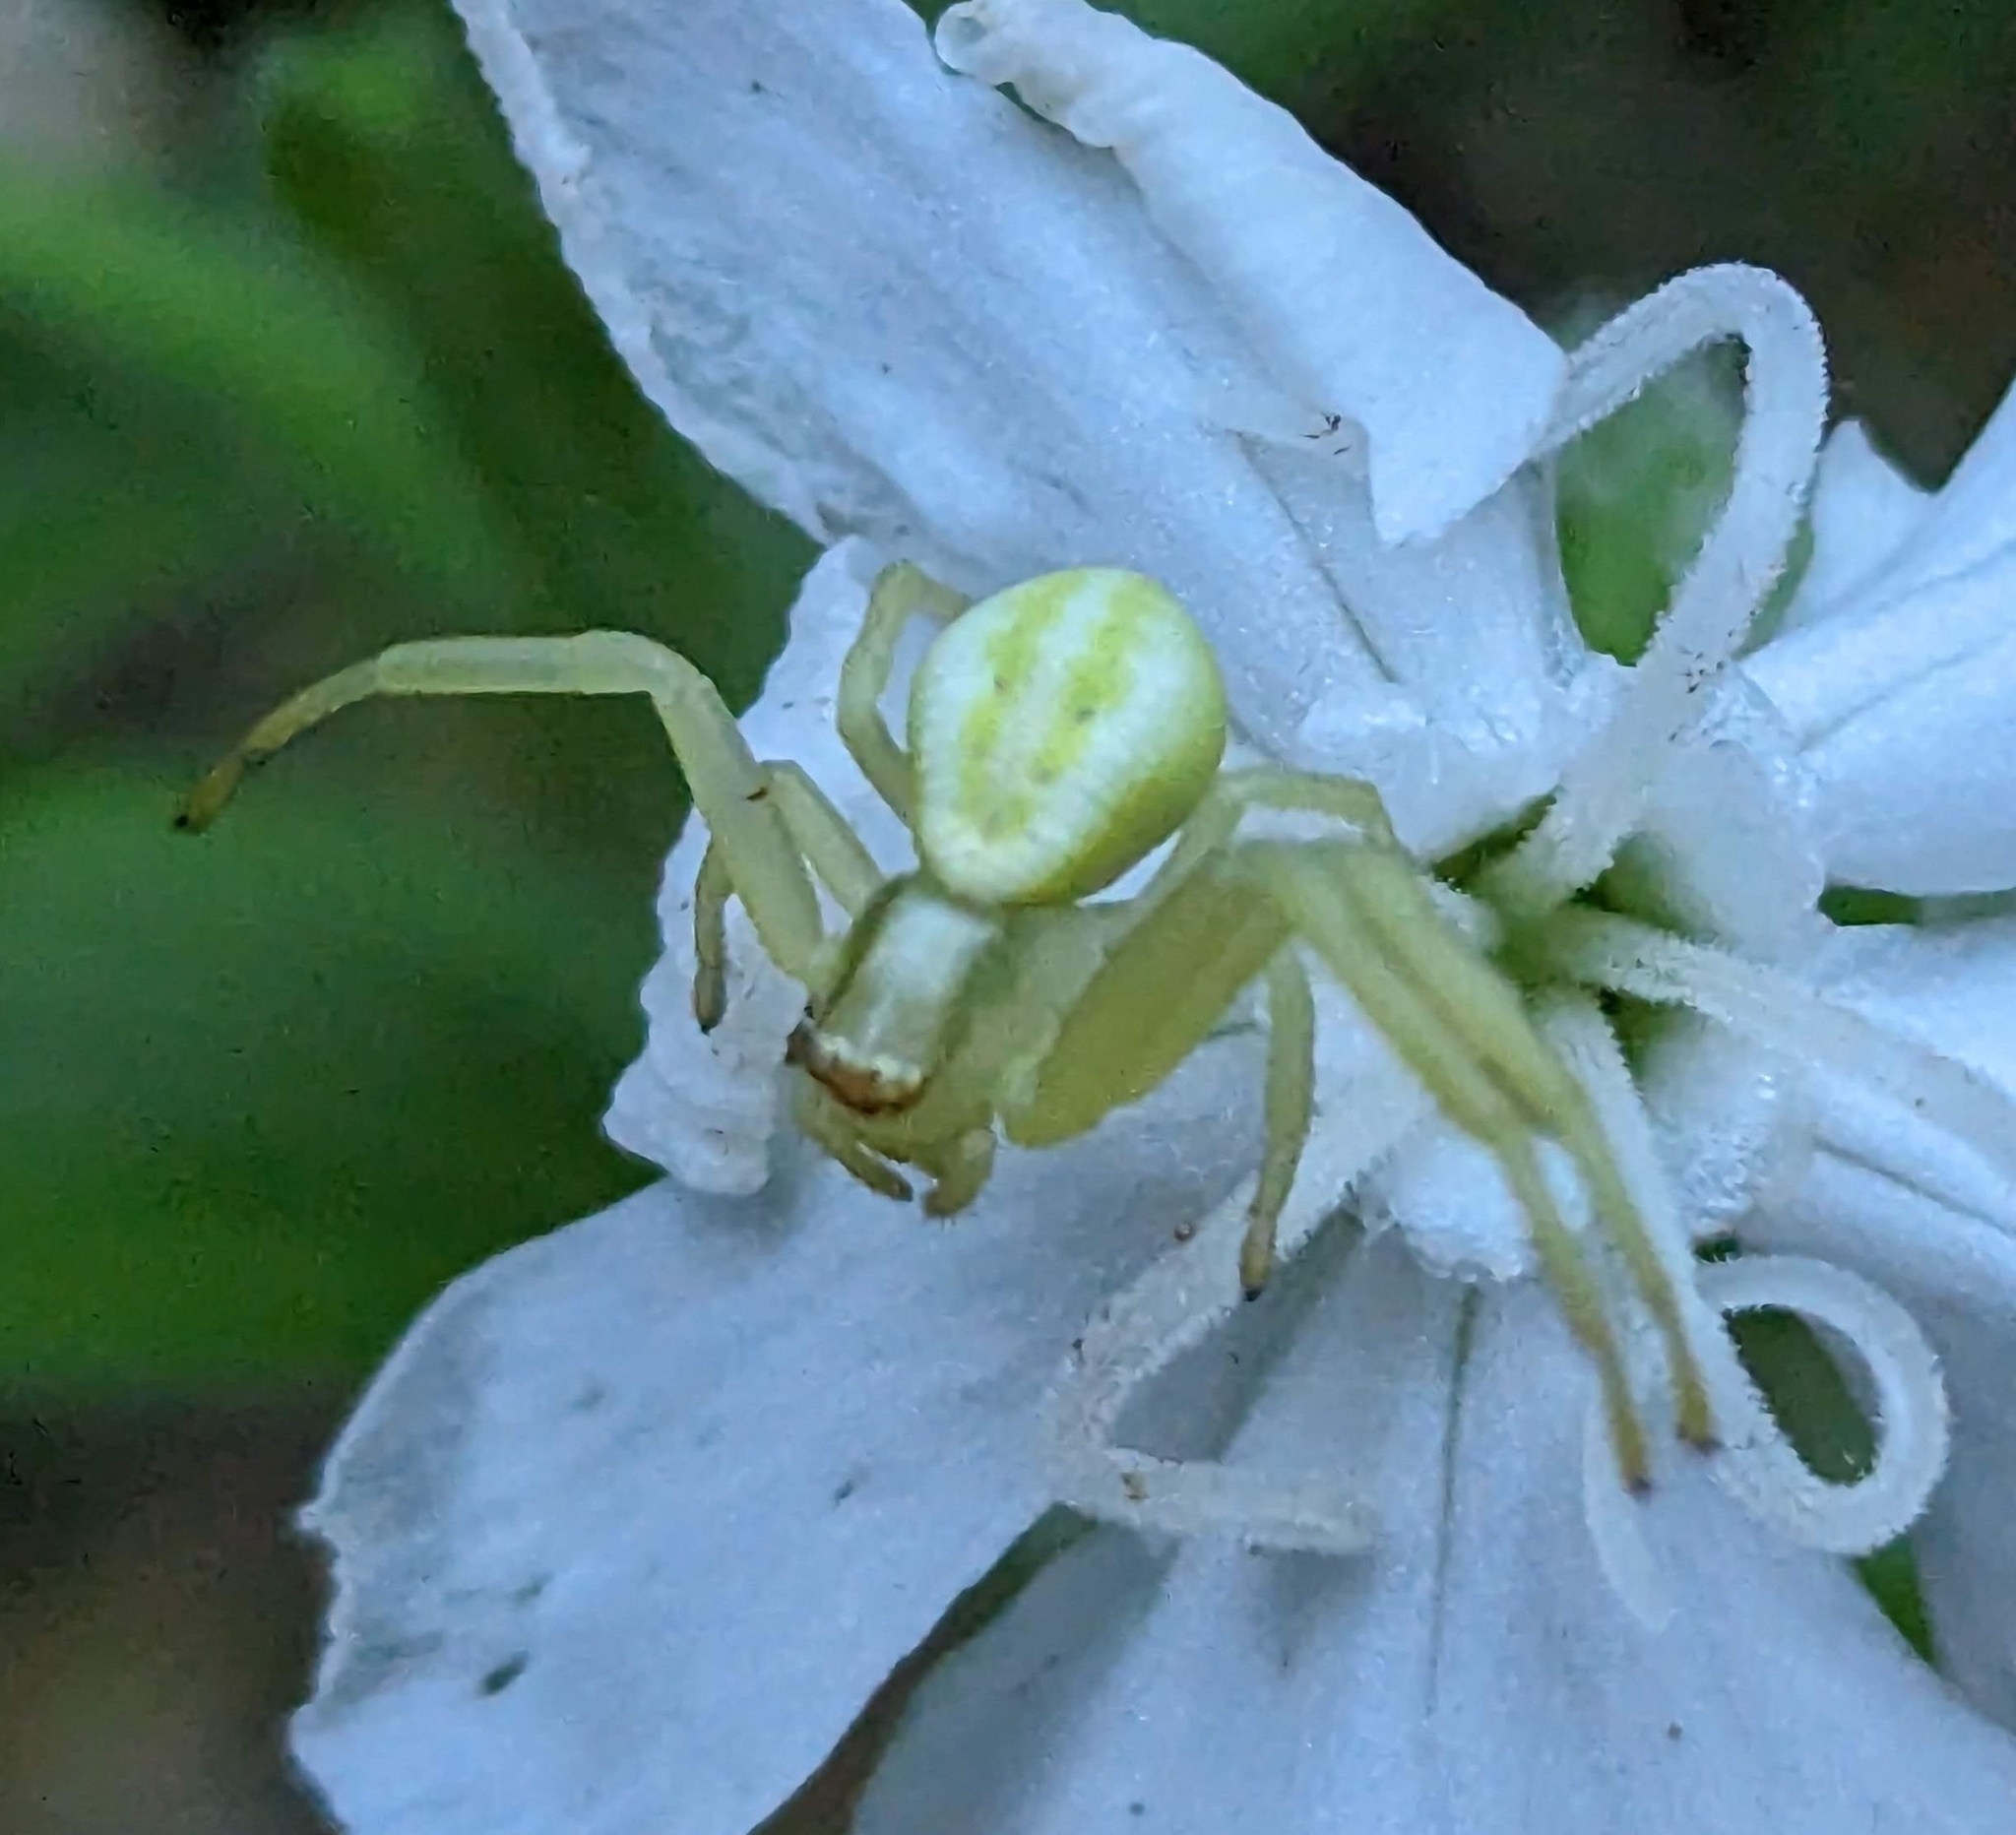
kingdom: Animalia
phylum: Arthropoda
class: Arachnida
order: Araneae
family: Thomisidae
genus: Misumena
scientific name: Misumena vatia
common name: Goldenrod crab spider
